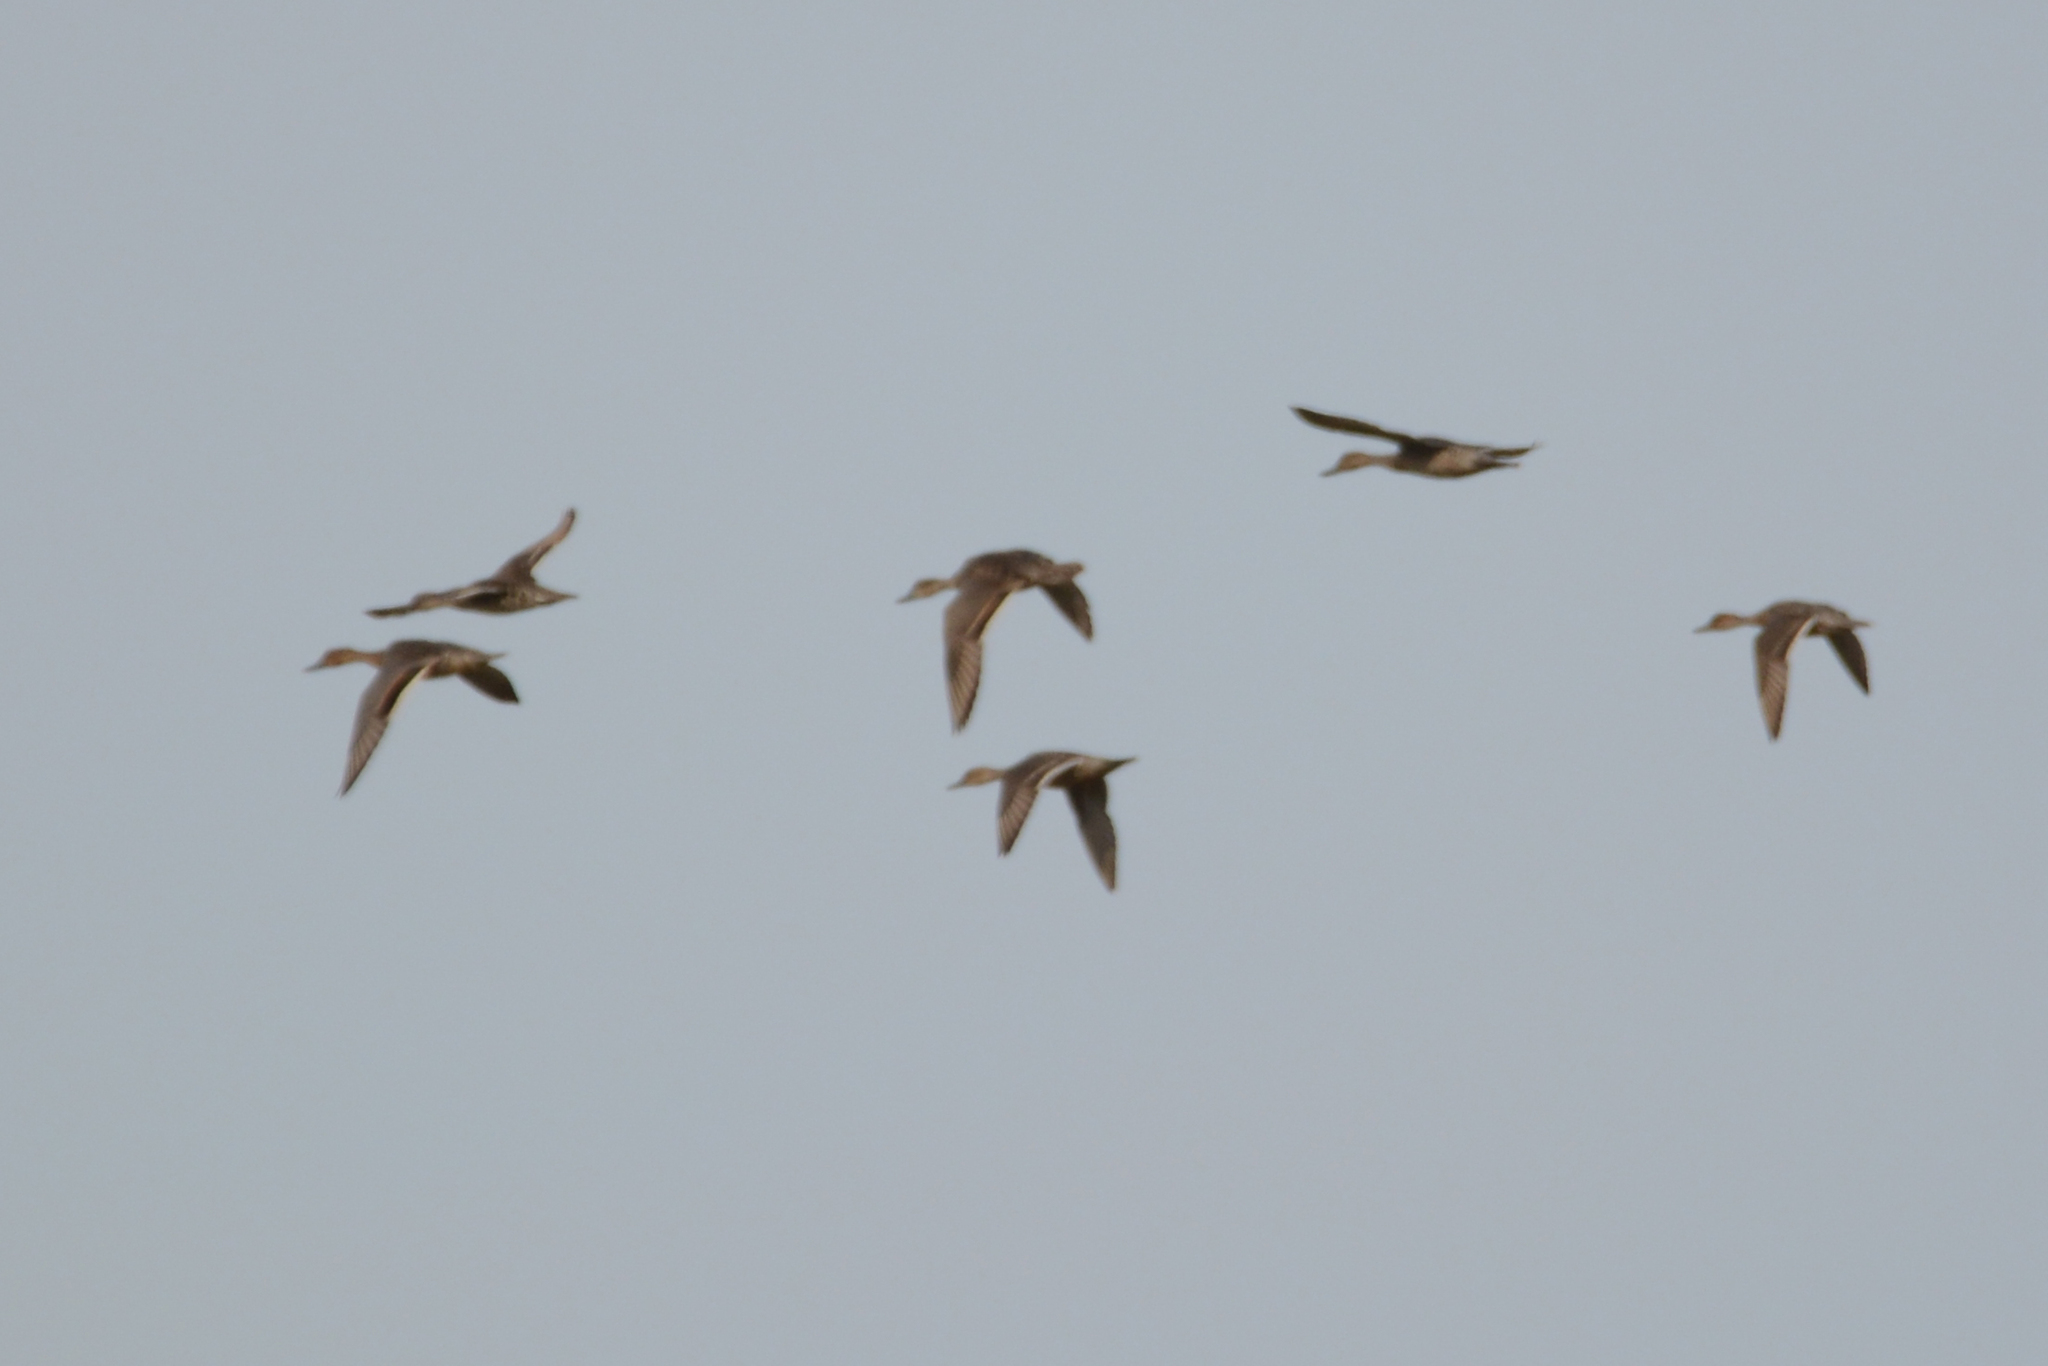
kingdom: Animalia
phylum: Chordata
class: Aves
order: Anseriformes
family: Anatidae
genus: Anas
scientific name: Anas acuta
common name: Northern pintail
